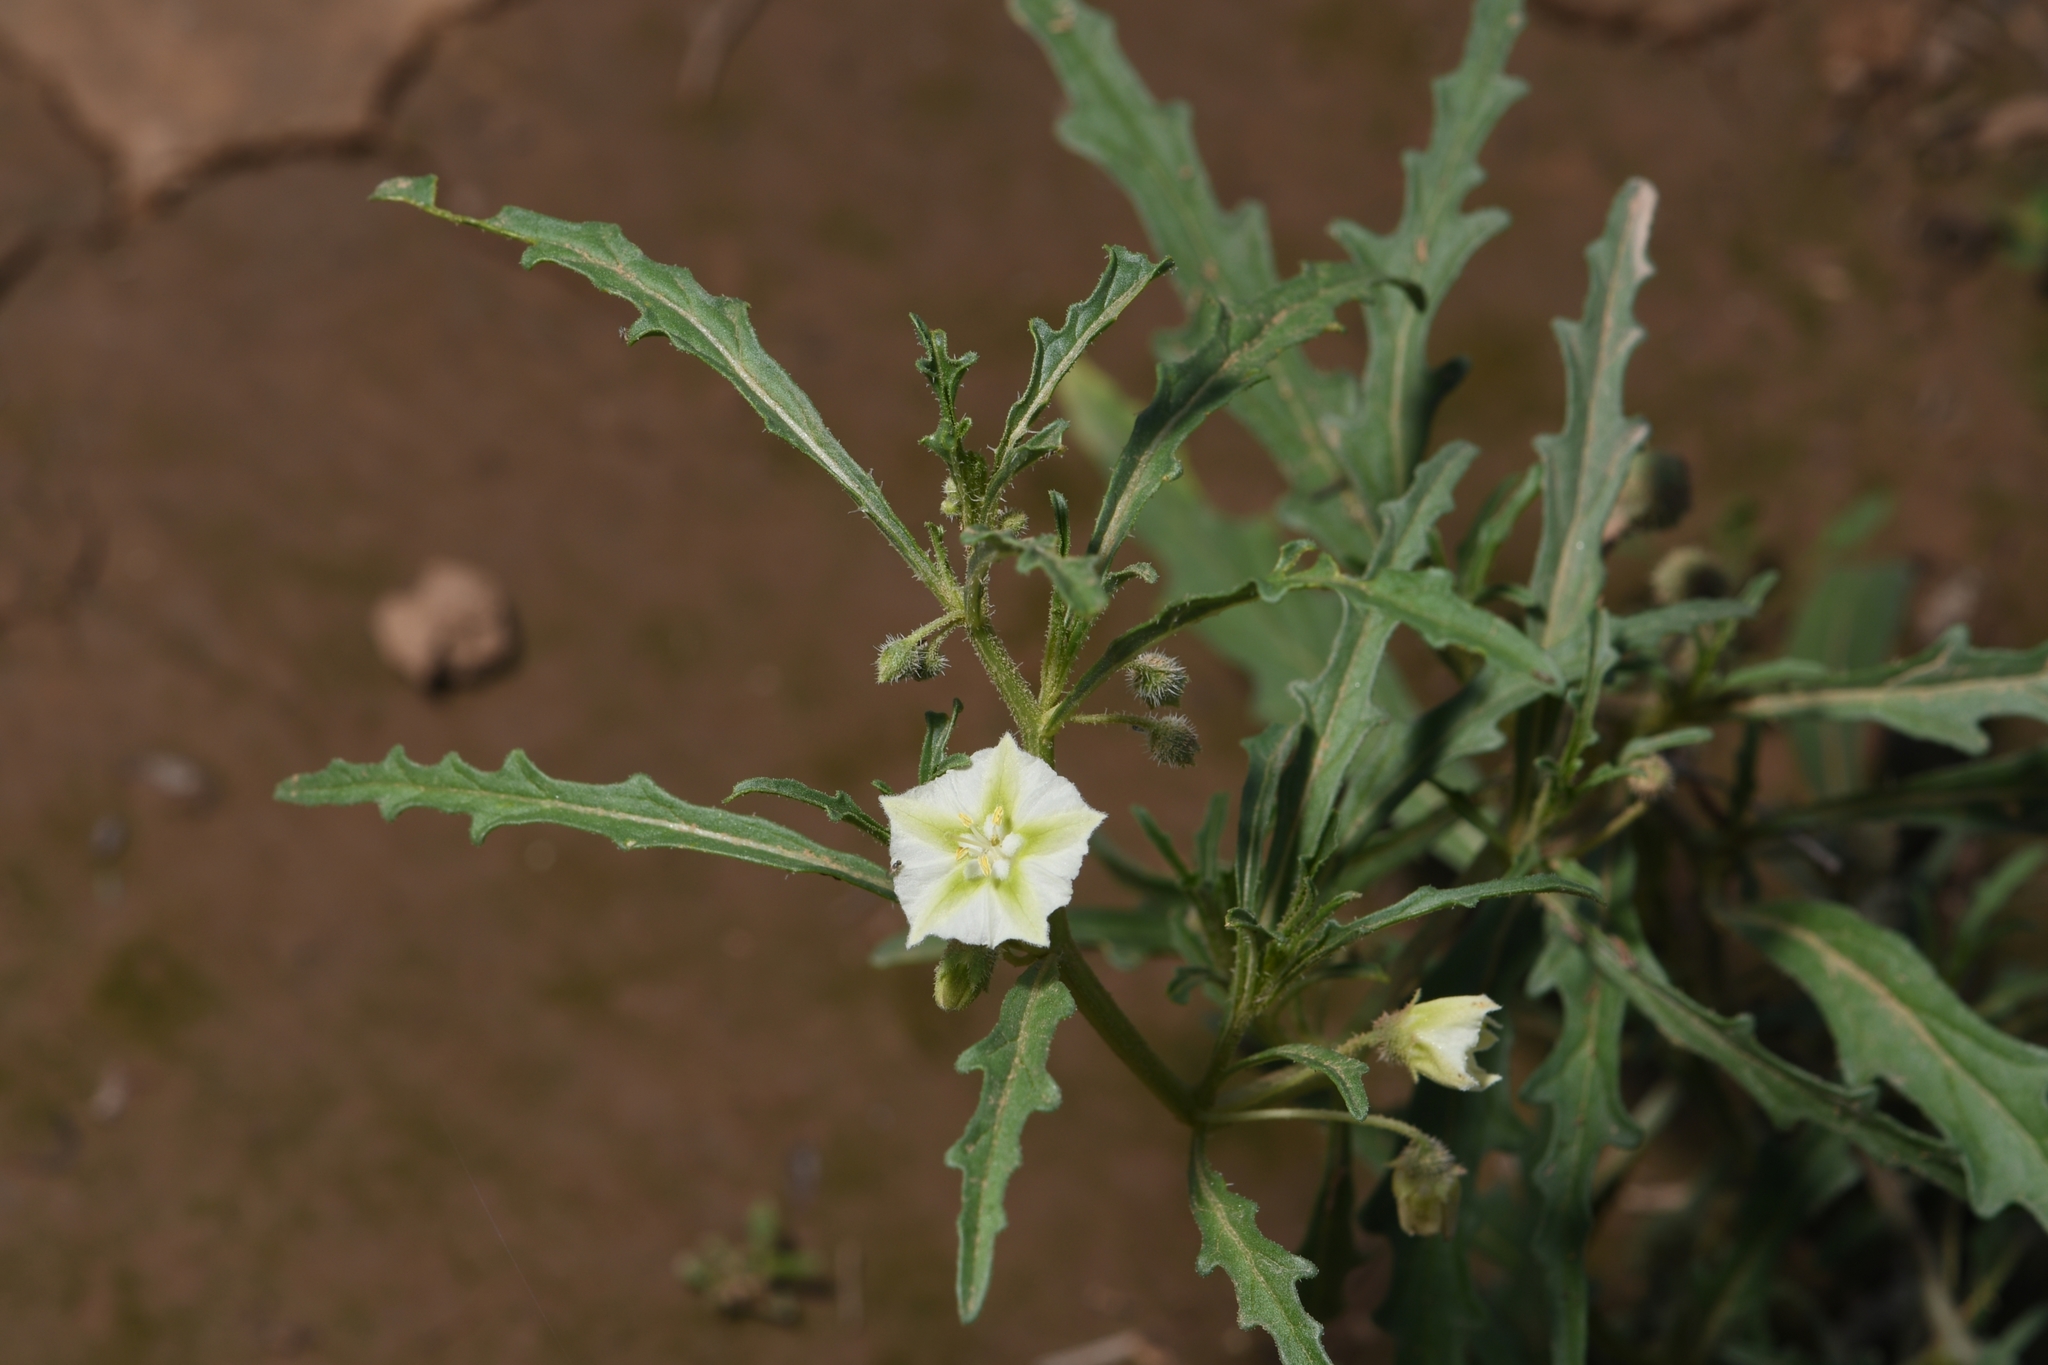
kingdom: Plantae
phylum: Tracheophyta
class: Magnoliopsida
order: Solanales
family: Solanaceae
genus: Chamaesaracha
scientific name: Chamaesaracha coronopus
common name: Smooth chamaesaracha
